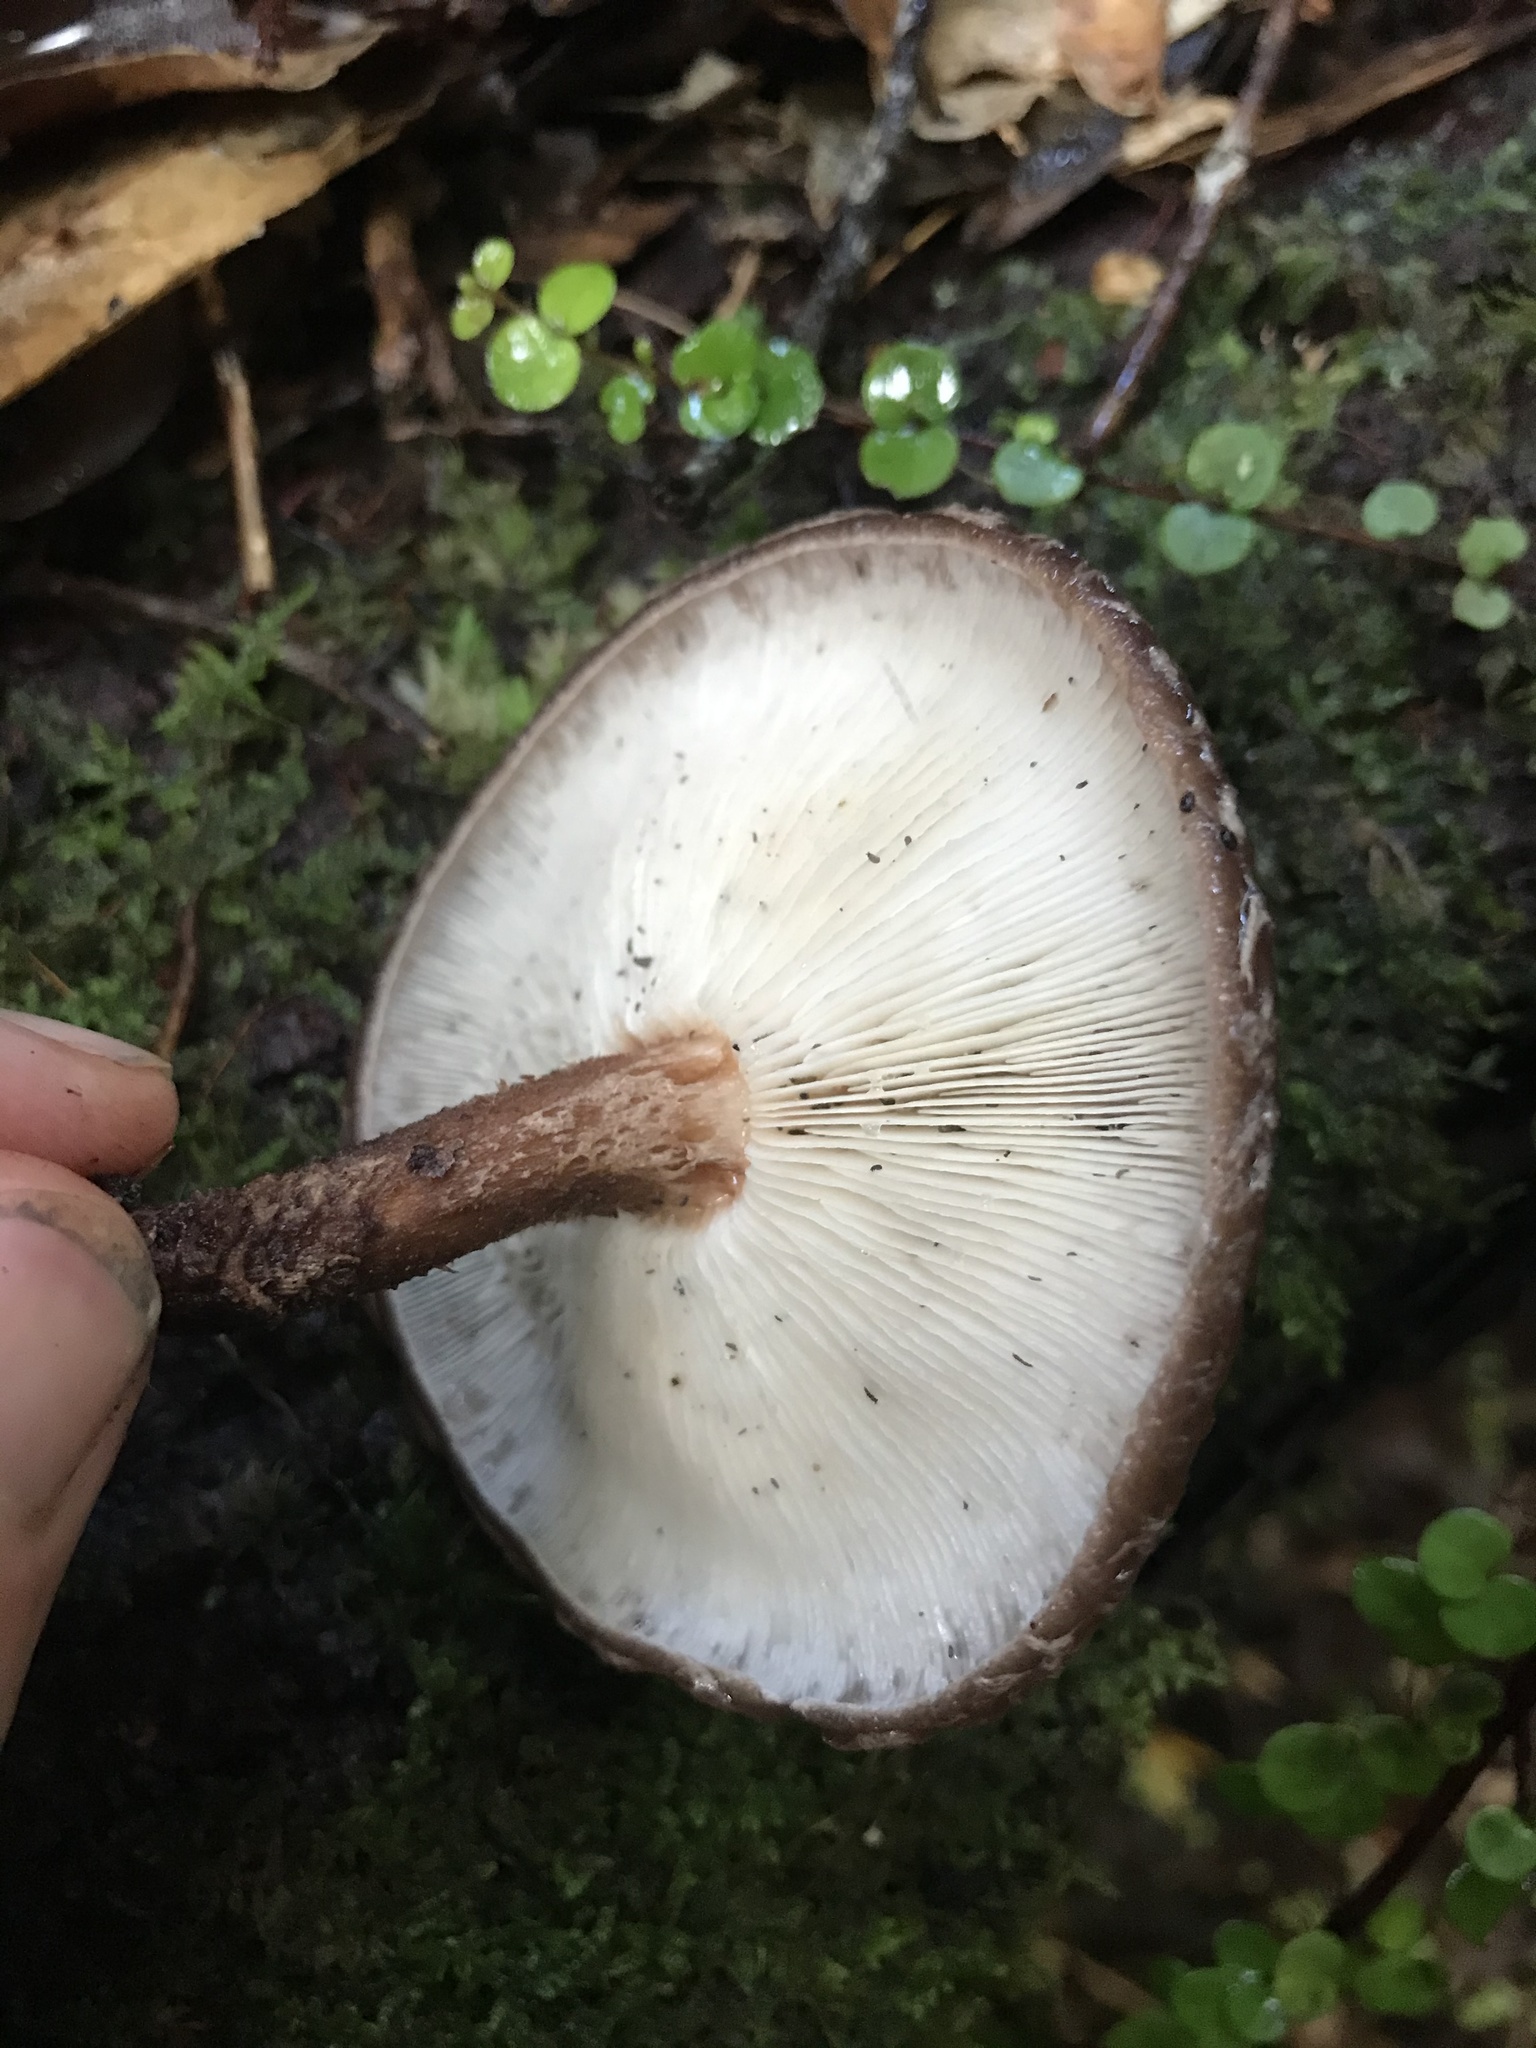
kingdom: Fungi
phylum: Basidiomycota
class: Agaricomycetes
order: Agaricales
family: Omphalotaceae
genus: Lentinula
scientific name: Lentinula novae-zelandiae
